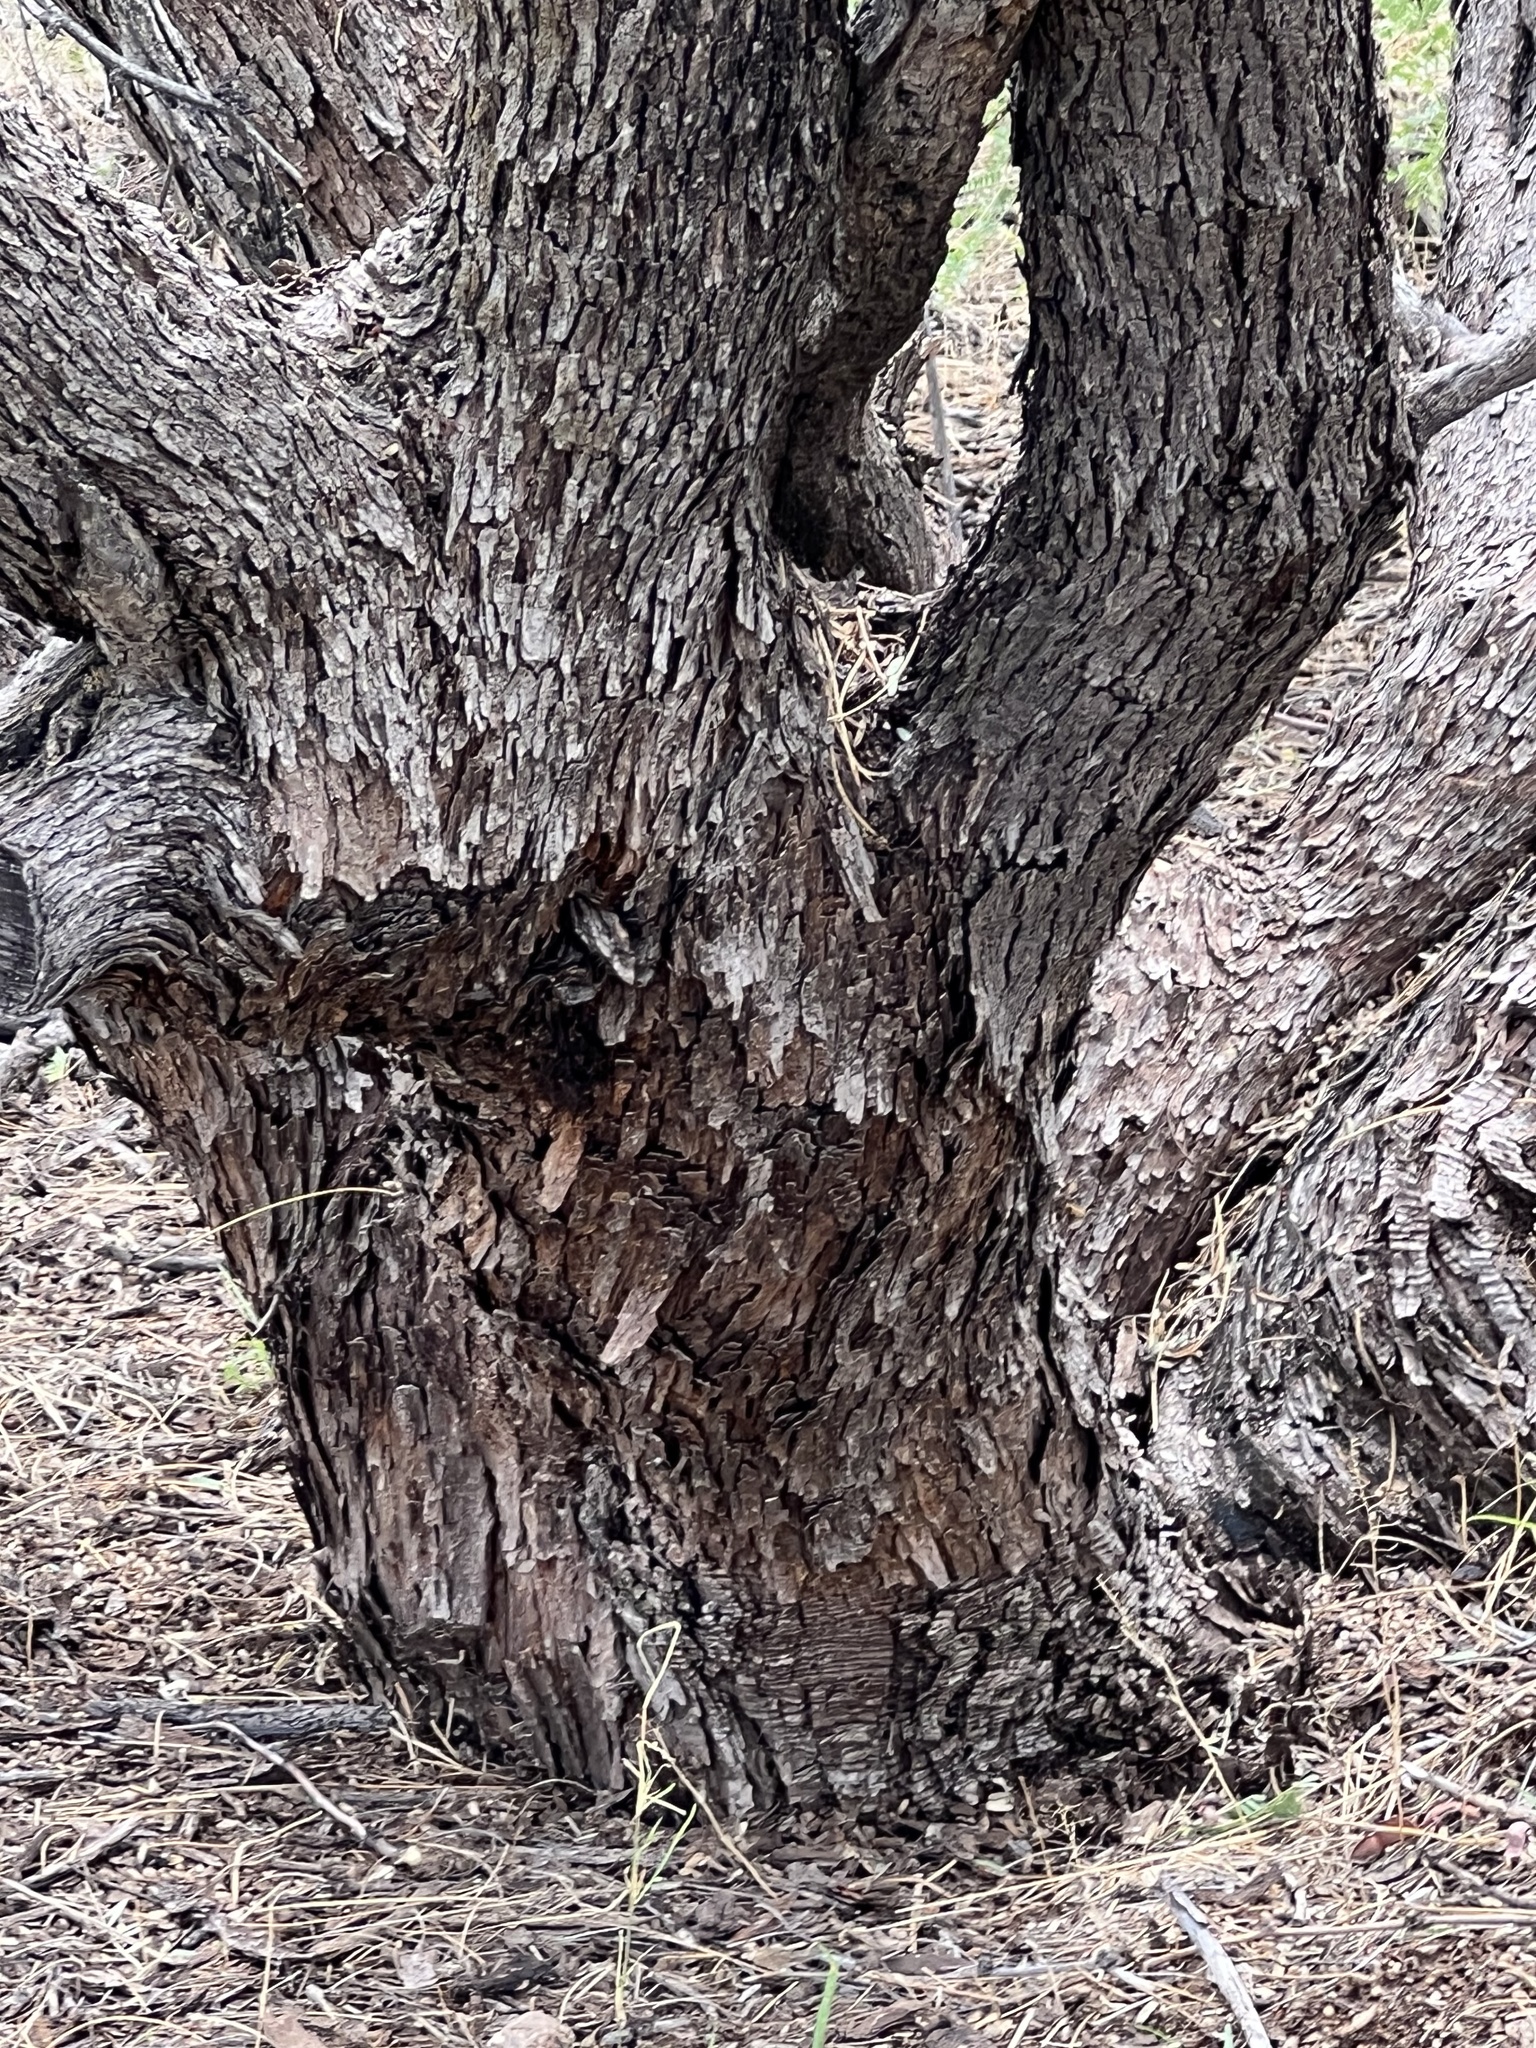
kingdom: Plantae
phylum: Tracheophyta
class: Magnoliopsida
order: Fabales
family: Fabaceae
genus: Prosopis
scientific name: Prosopis velutina
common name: Velvet mesquite
